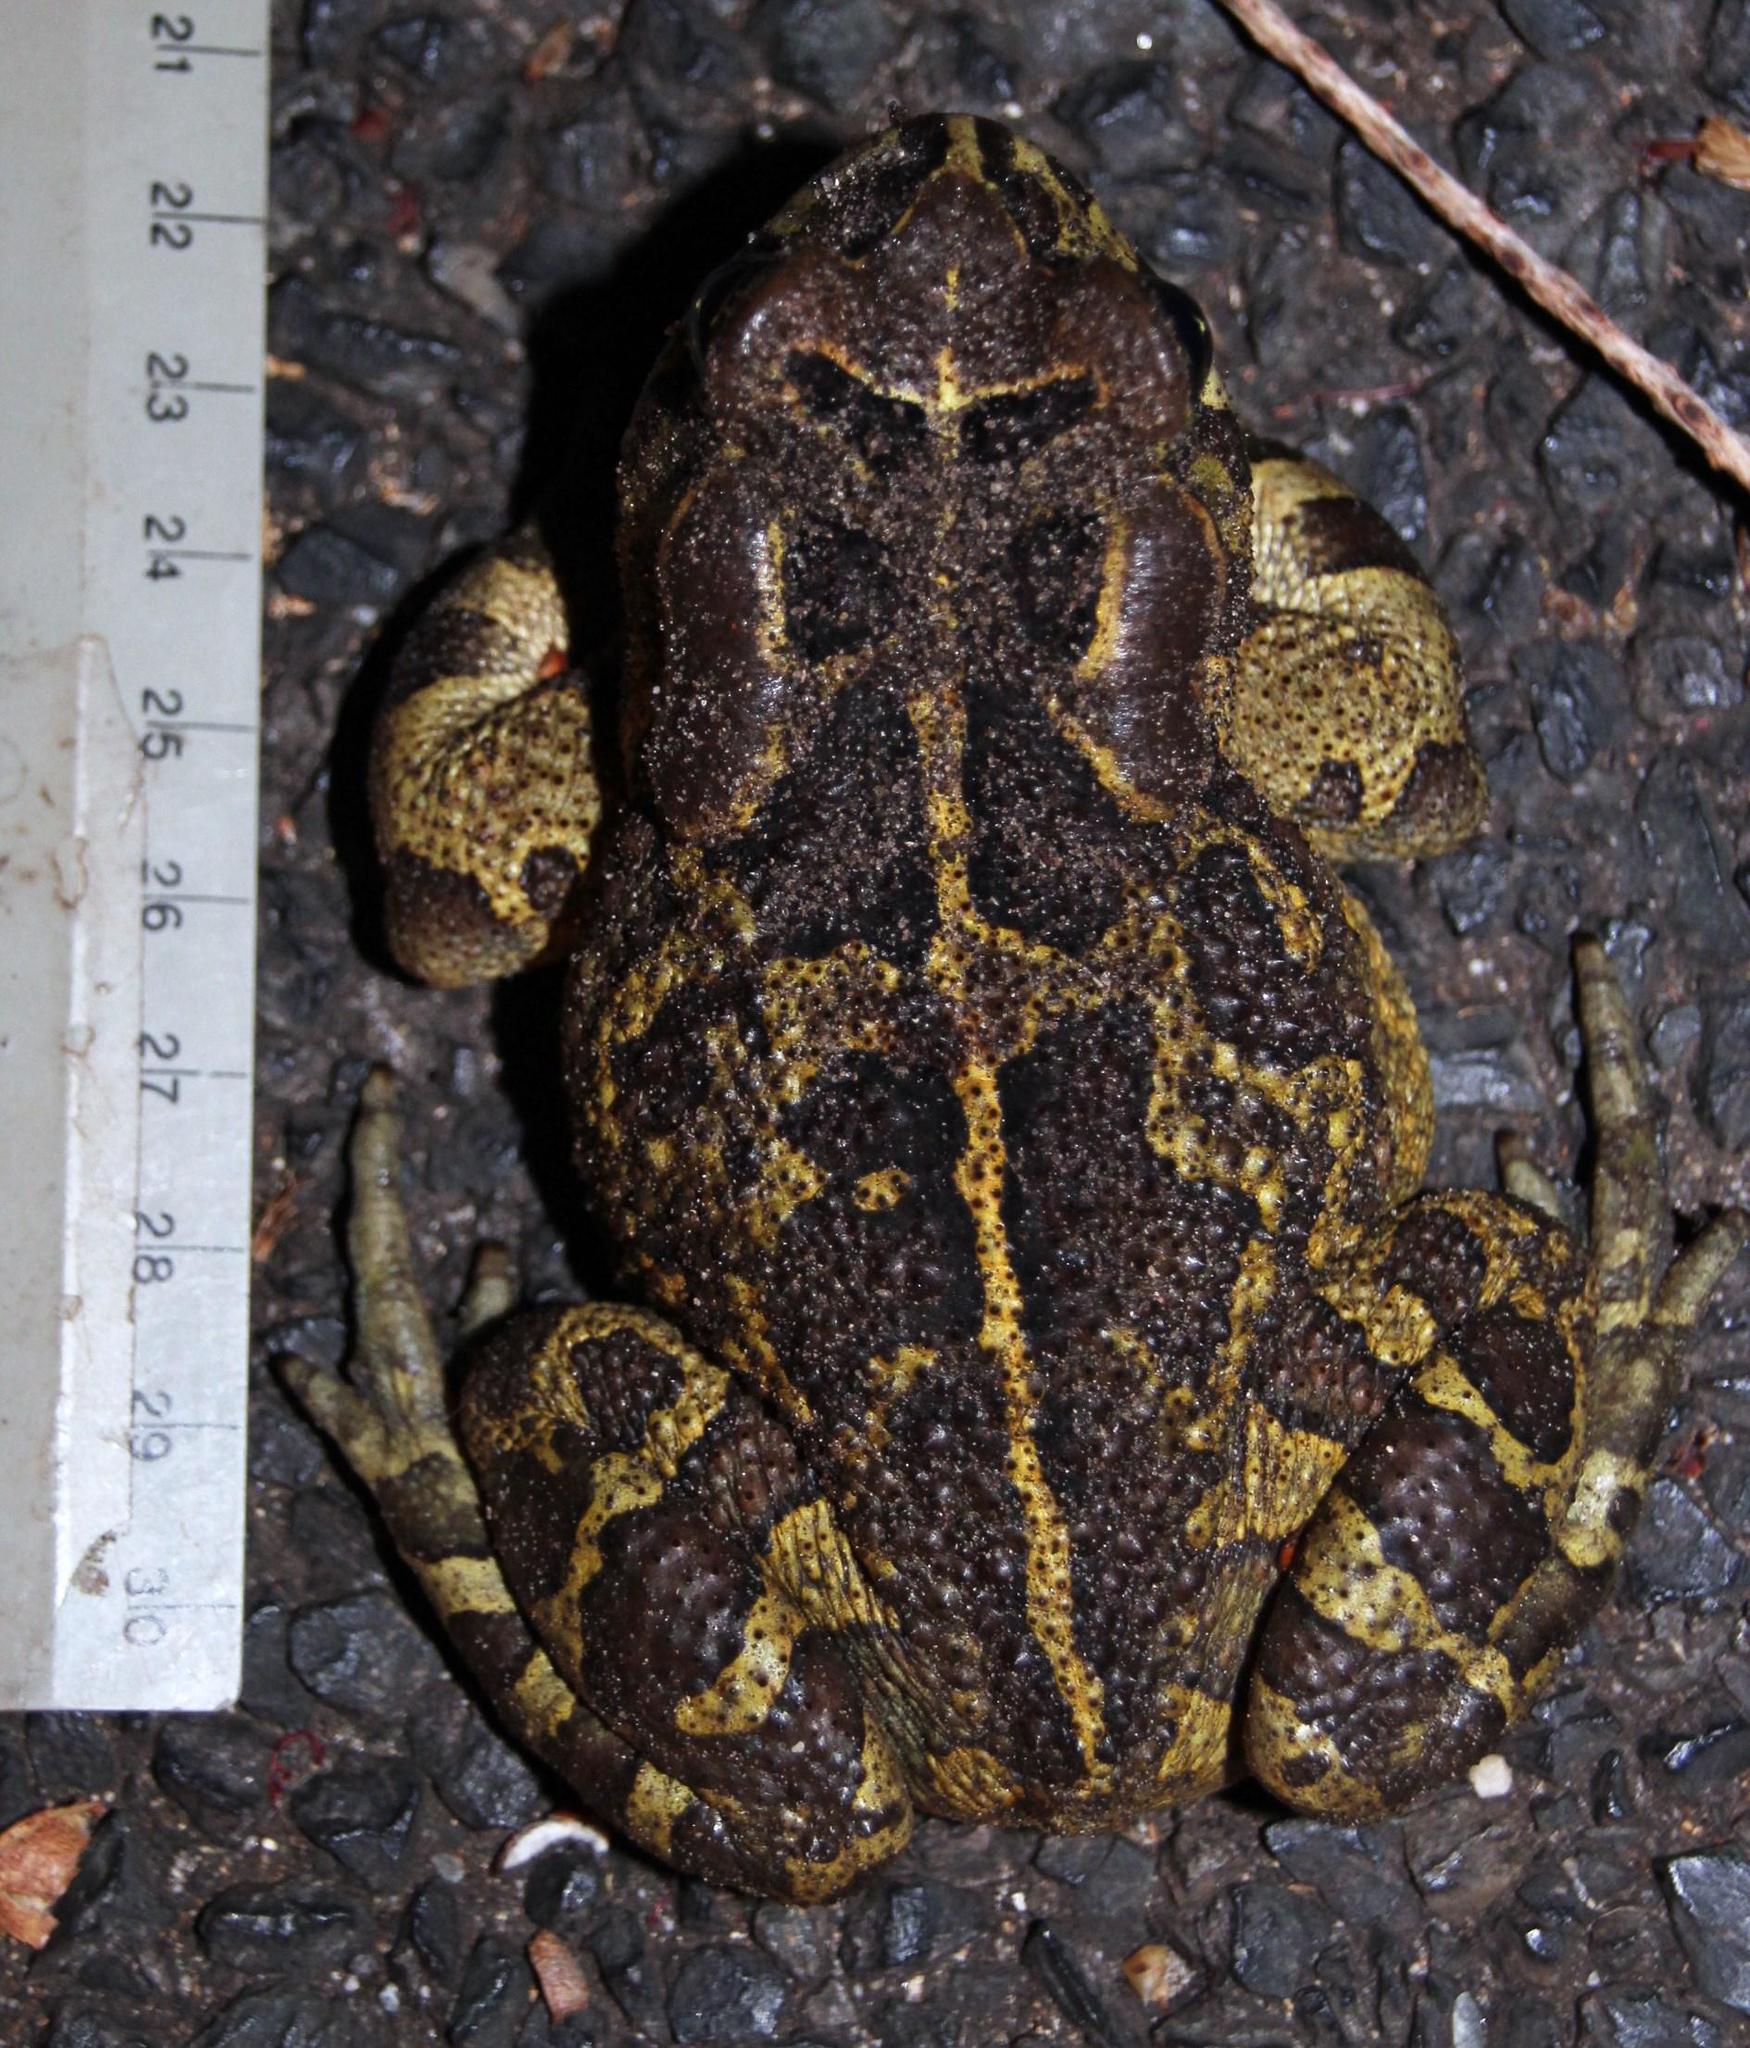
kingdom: Animalia
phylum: Chordata
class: Amphibia
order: Anura
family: Bufonidae
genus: Sclerophrys
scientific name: Sclerophrys pantherina
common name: Panther toad
